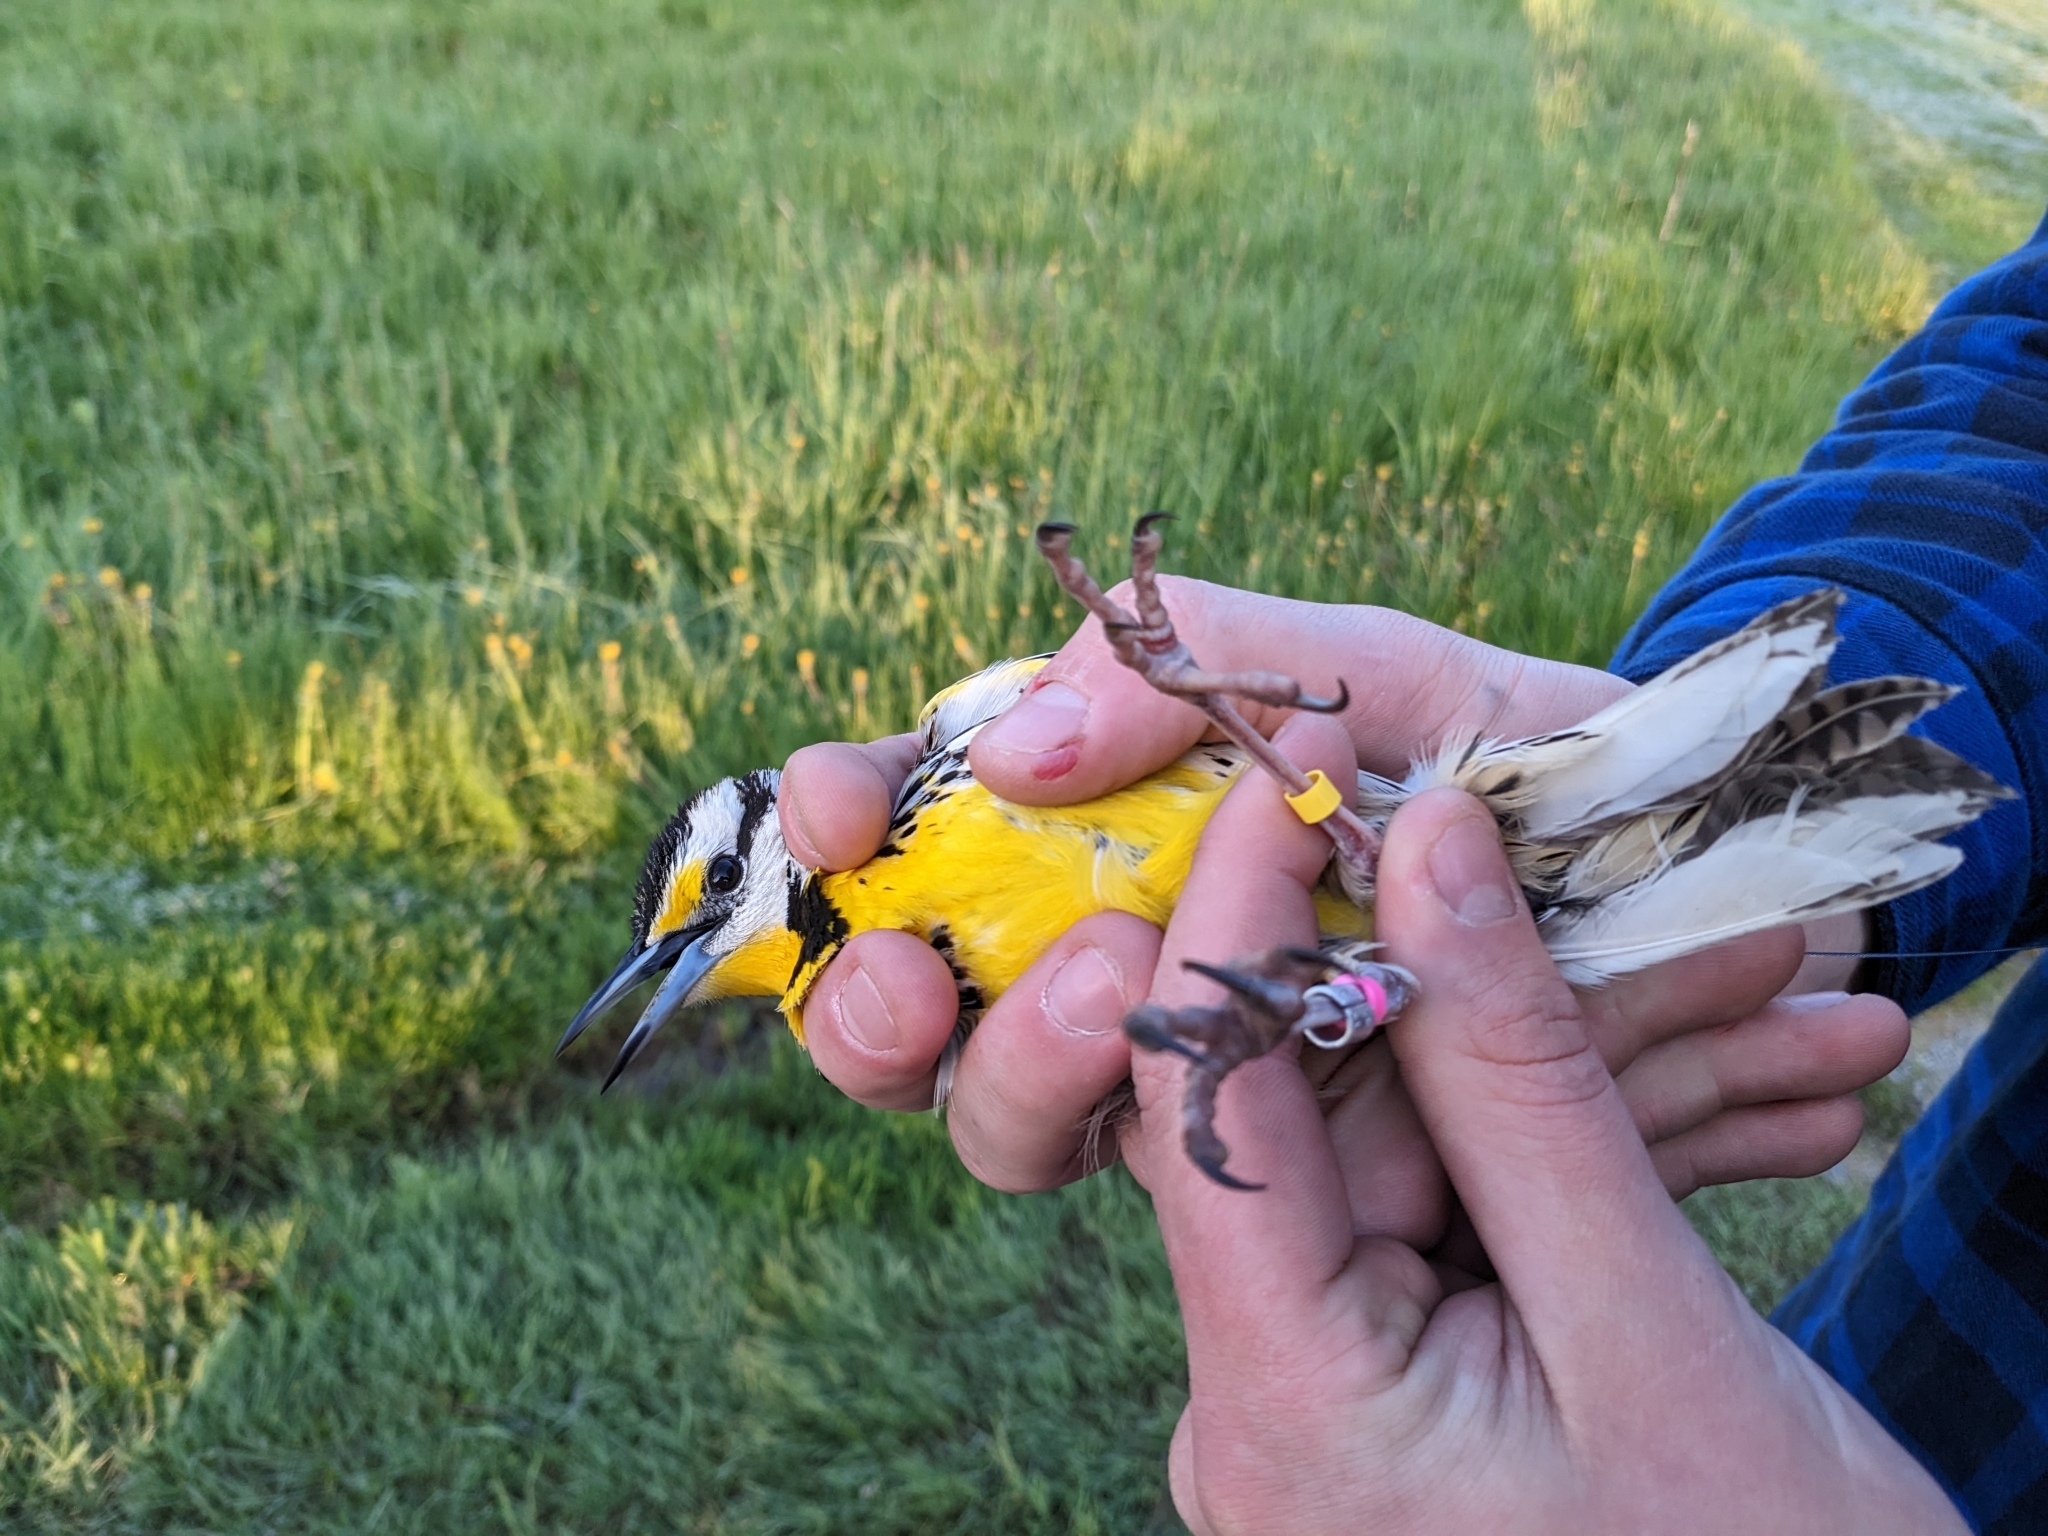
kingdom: Animalia
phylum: Chordata
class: Aves
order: Passeriformes
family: Icteridae
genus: Sturnella
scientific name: Sturnella magna
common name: Eastern meadowlark
